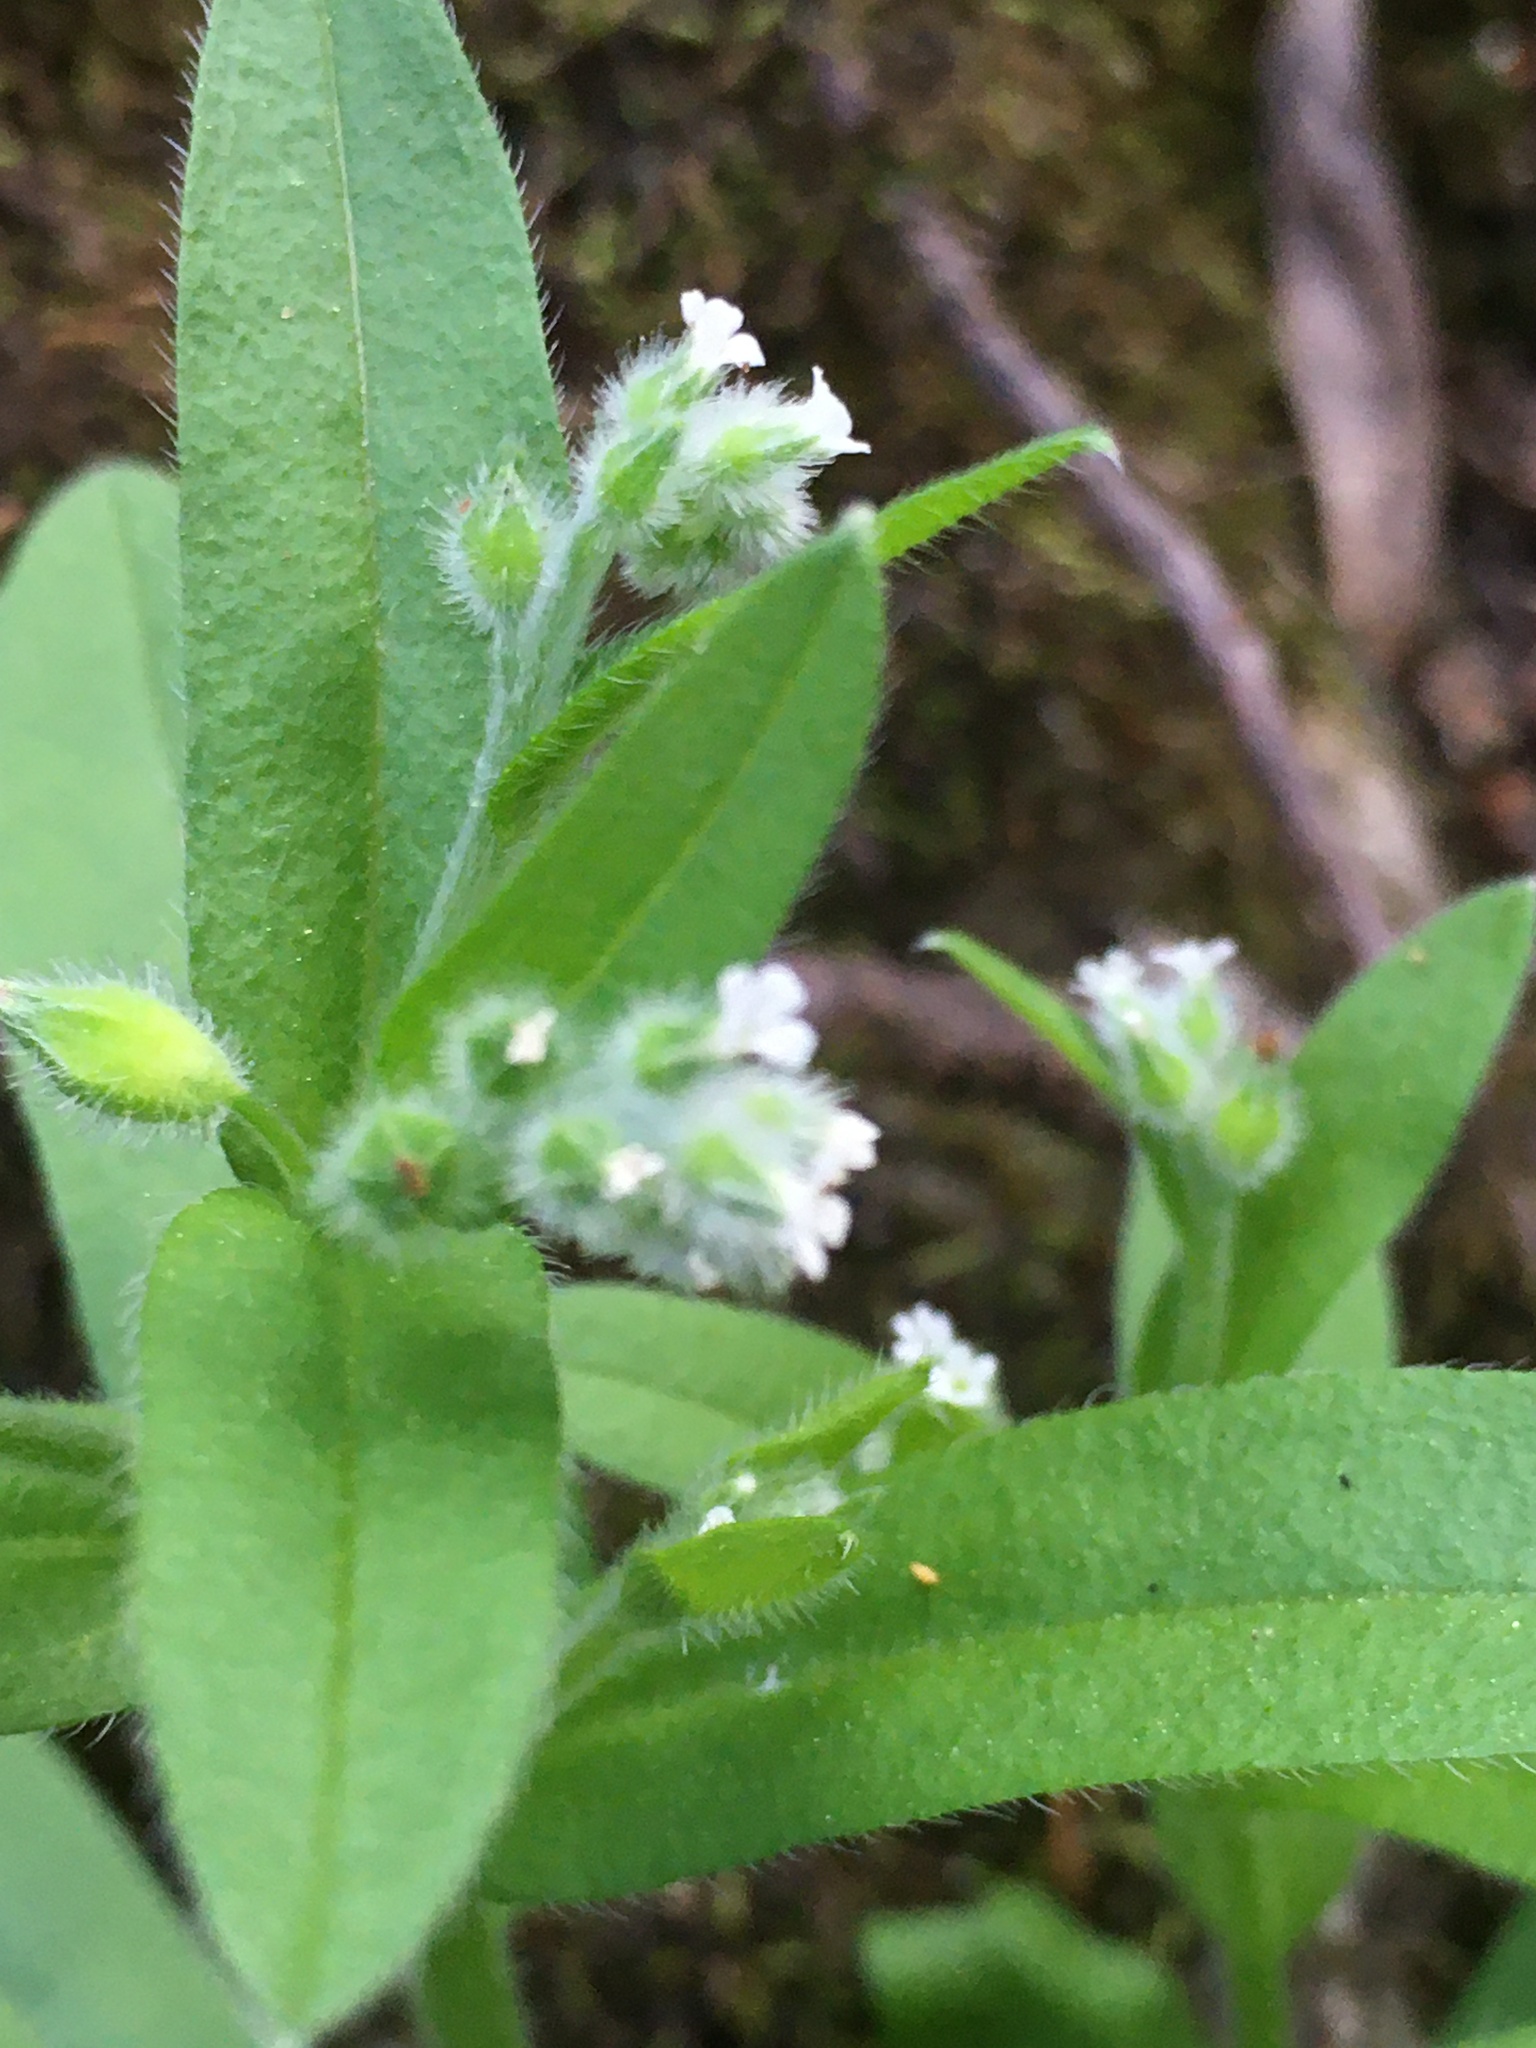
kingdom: Plantae
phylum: Tracheophyta
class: Magnoliopsida
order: Boraginales
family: Boraginaceae
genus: Myosotis
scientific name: Myosotis macrosperma
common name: Large-seed forget-me-not
